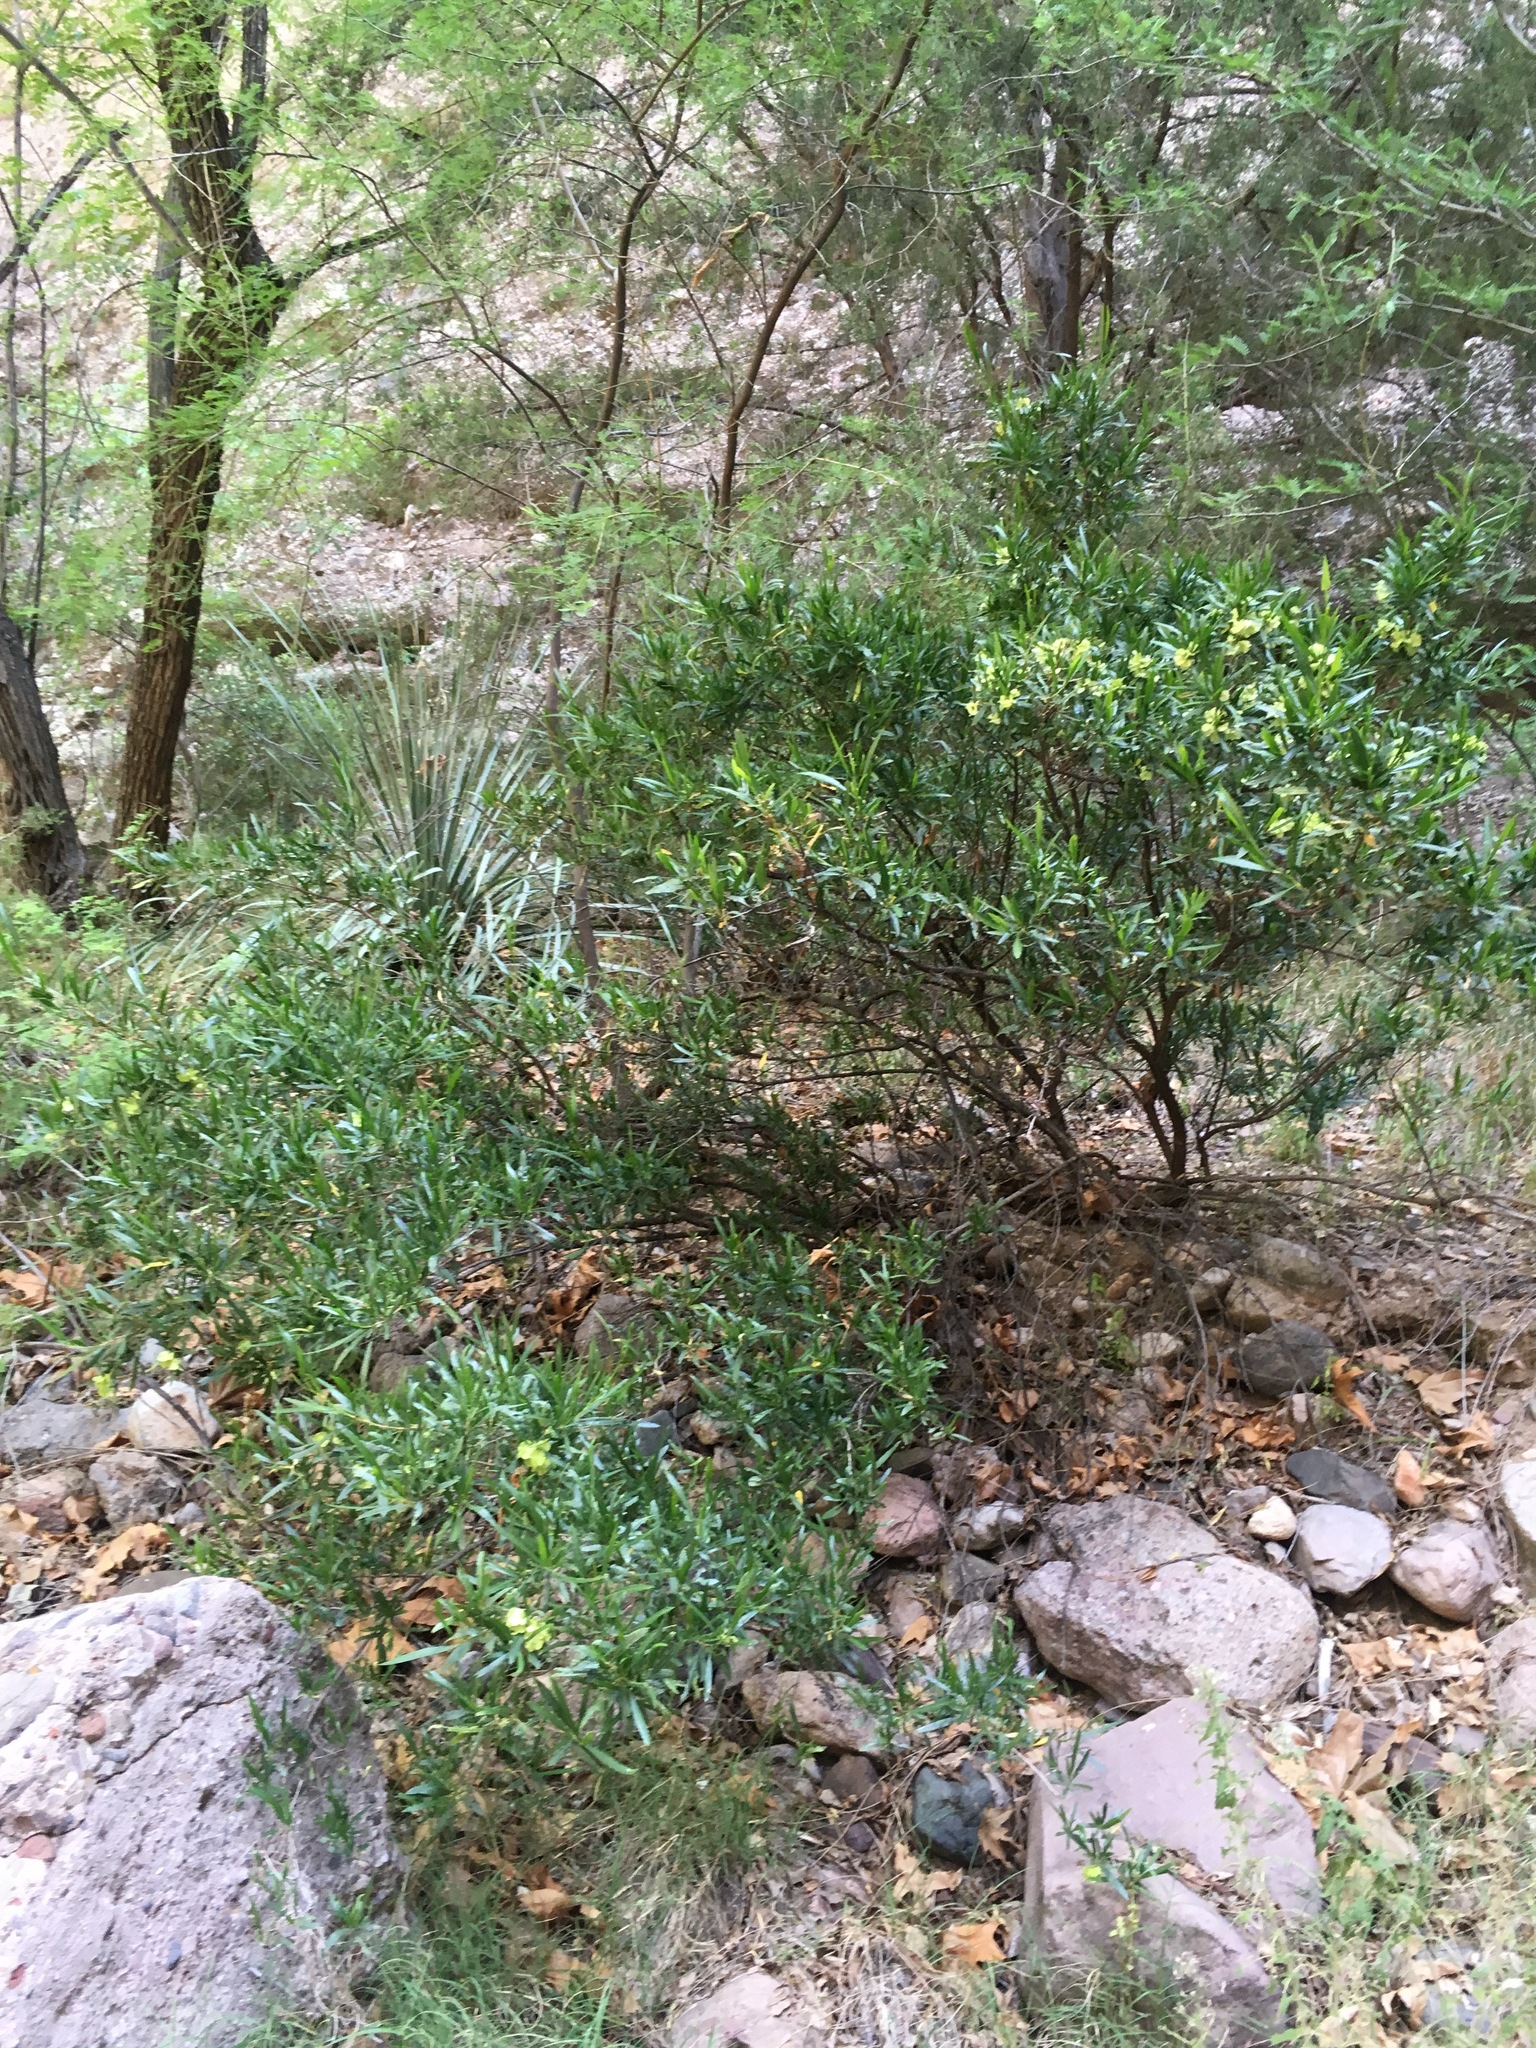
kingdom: Plantae
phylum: Tracheophyta
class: Magnoliopsida
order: Sapindales
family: Sapindaceae
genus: Dodonaea
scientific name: Dodonaea viscosa
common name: Hopbush
